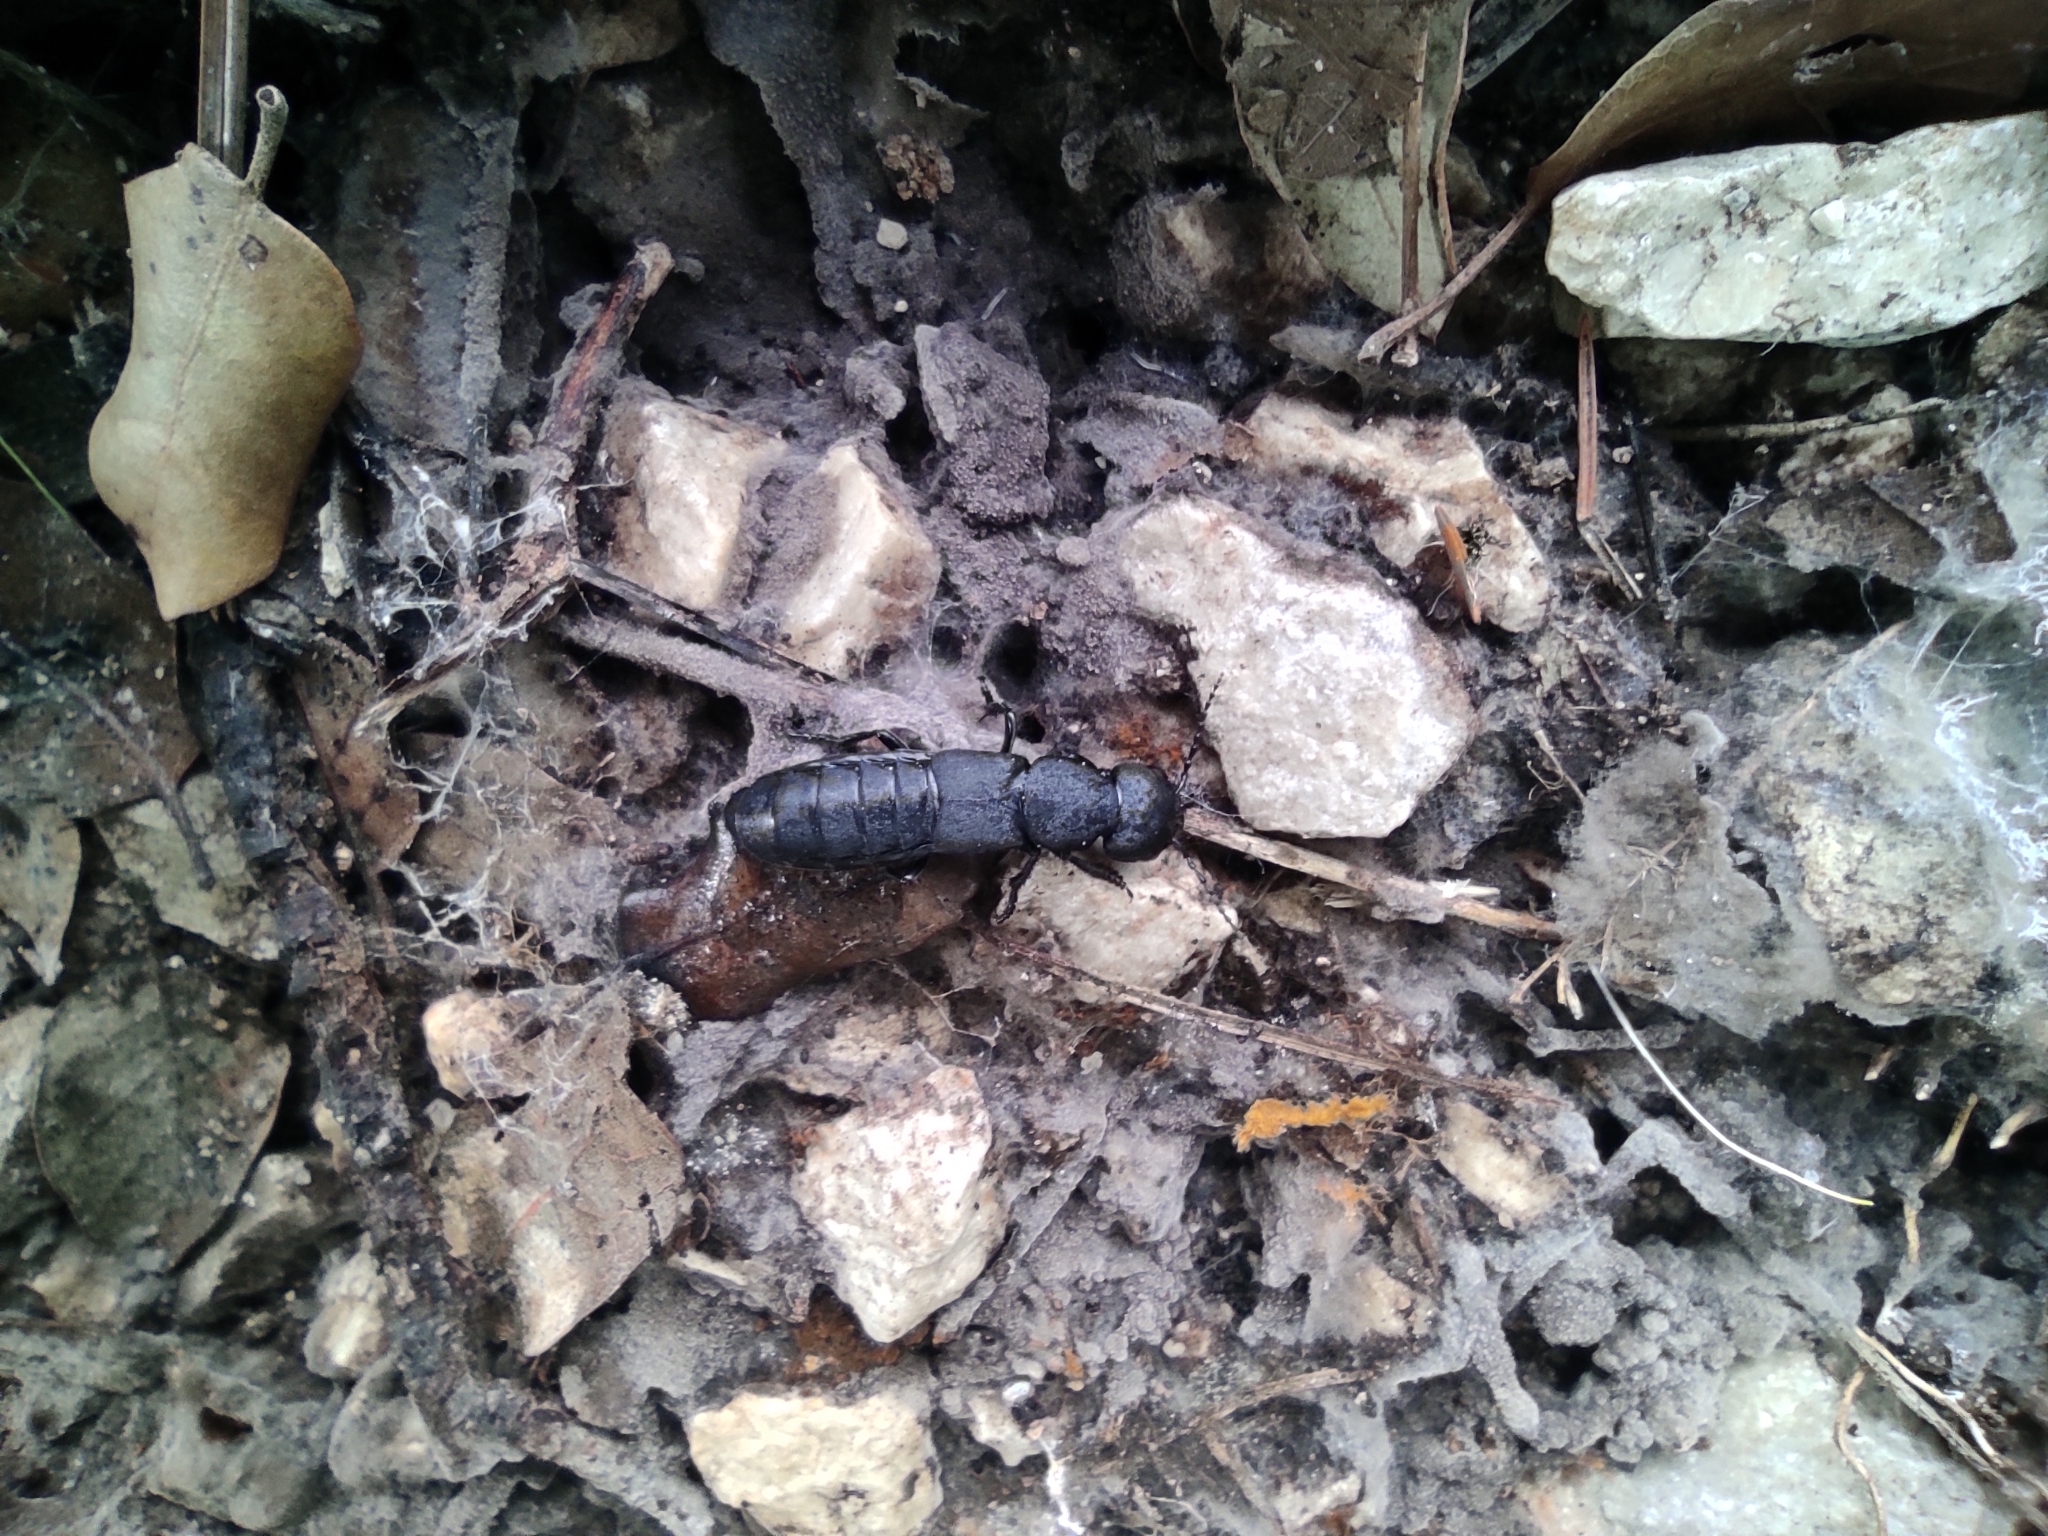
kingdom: Animalia
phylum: Arthropoda
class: Insecta
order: Coleoptera
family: Staphylinidae
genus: Ocypus
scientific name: Ocypus olens
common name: Devil's coach-horse
